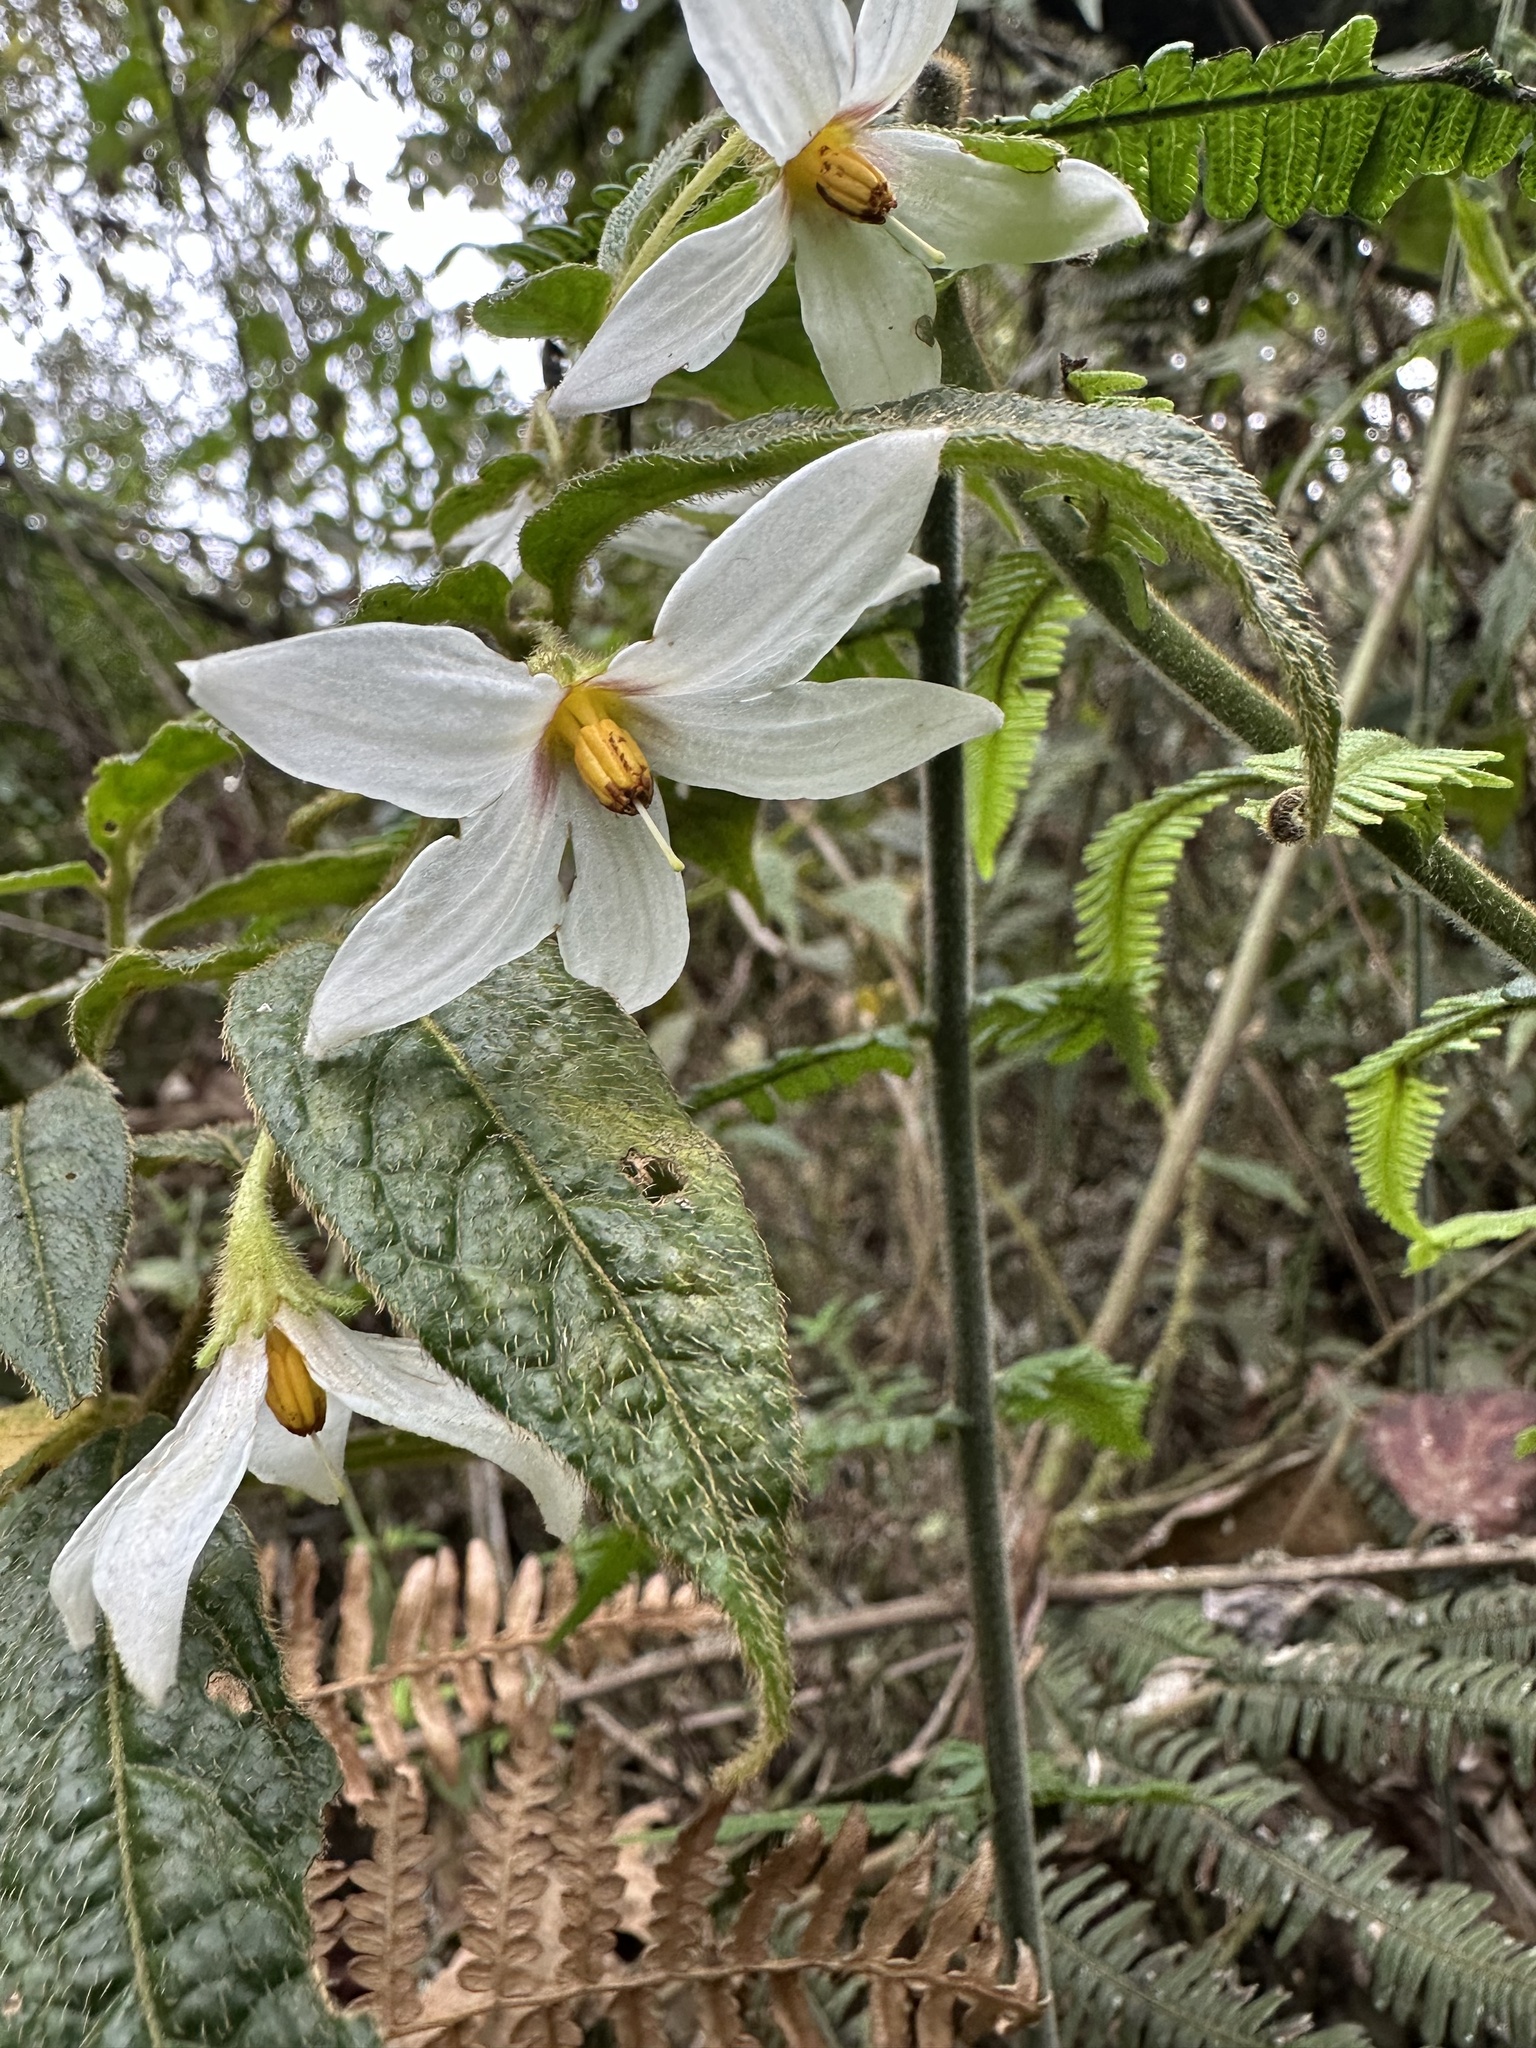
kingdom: Plantae
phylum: Tracheophyta
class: Magnoliopsida
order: Solanales
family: Solanaceae
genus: Lycianthes
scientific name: Lycianthes acutifolia
